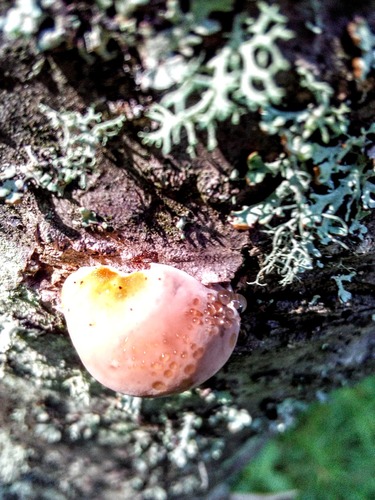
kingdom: Fungi
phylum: Basidiomycota
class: Agaricomycetes
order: Polyporales
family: Fomitopsidaceae
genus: Fomitopsis
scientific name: Fomitopsis pinicola
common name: Red-belted bracket
